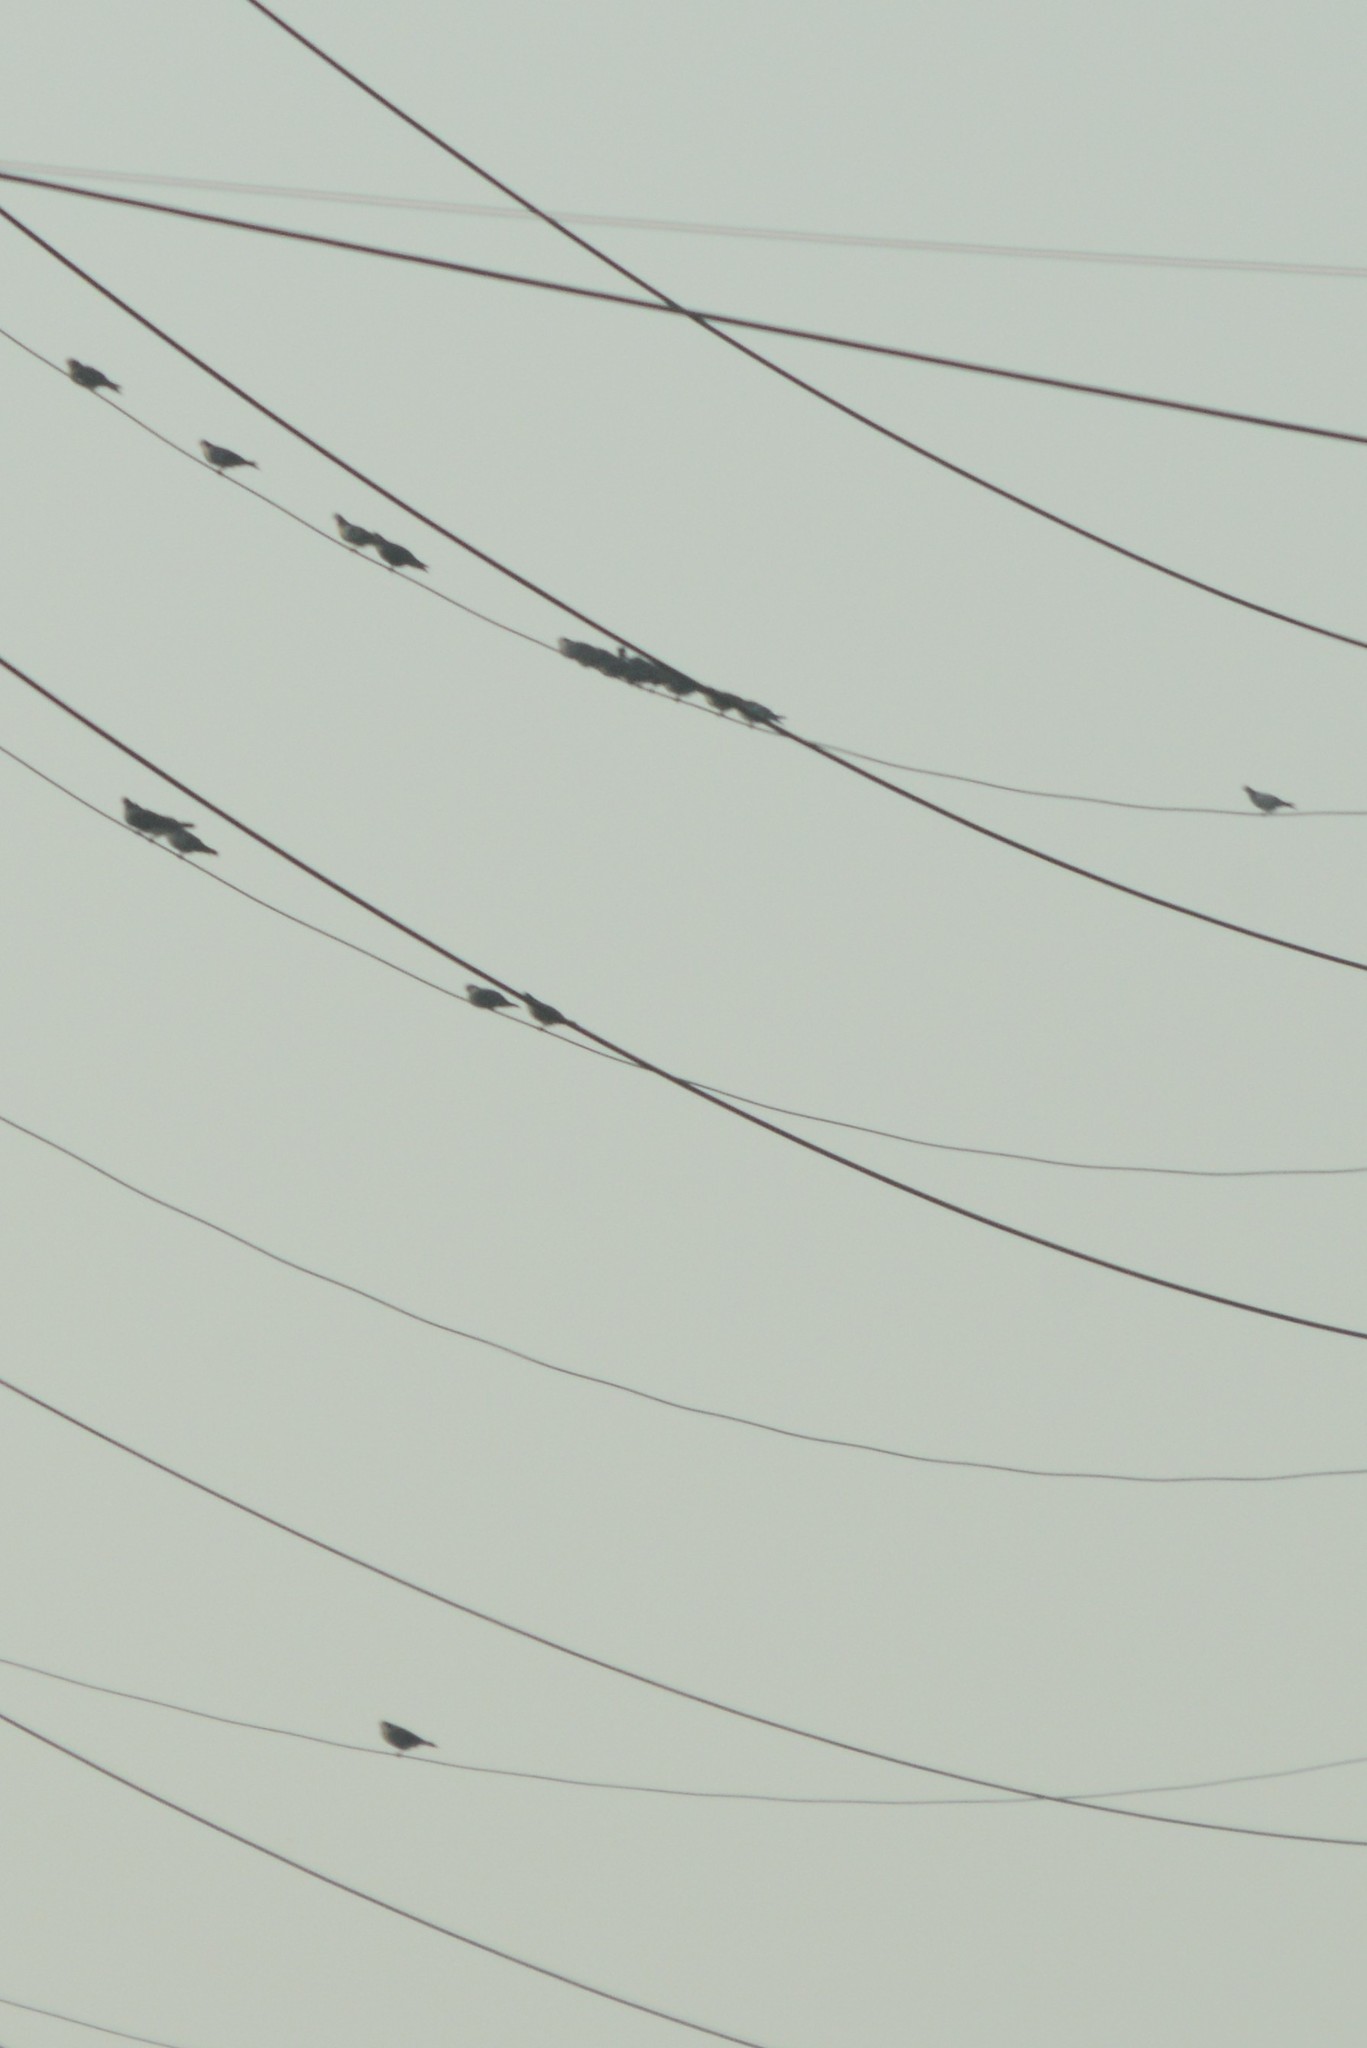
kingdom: Animalia
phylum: Chordata
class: Aves
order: Columbiformes
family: Columbidae
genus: Columba
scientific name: Columba livia
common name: Rock pigeon
